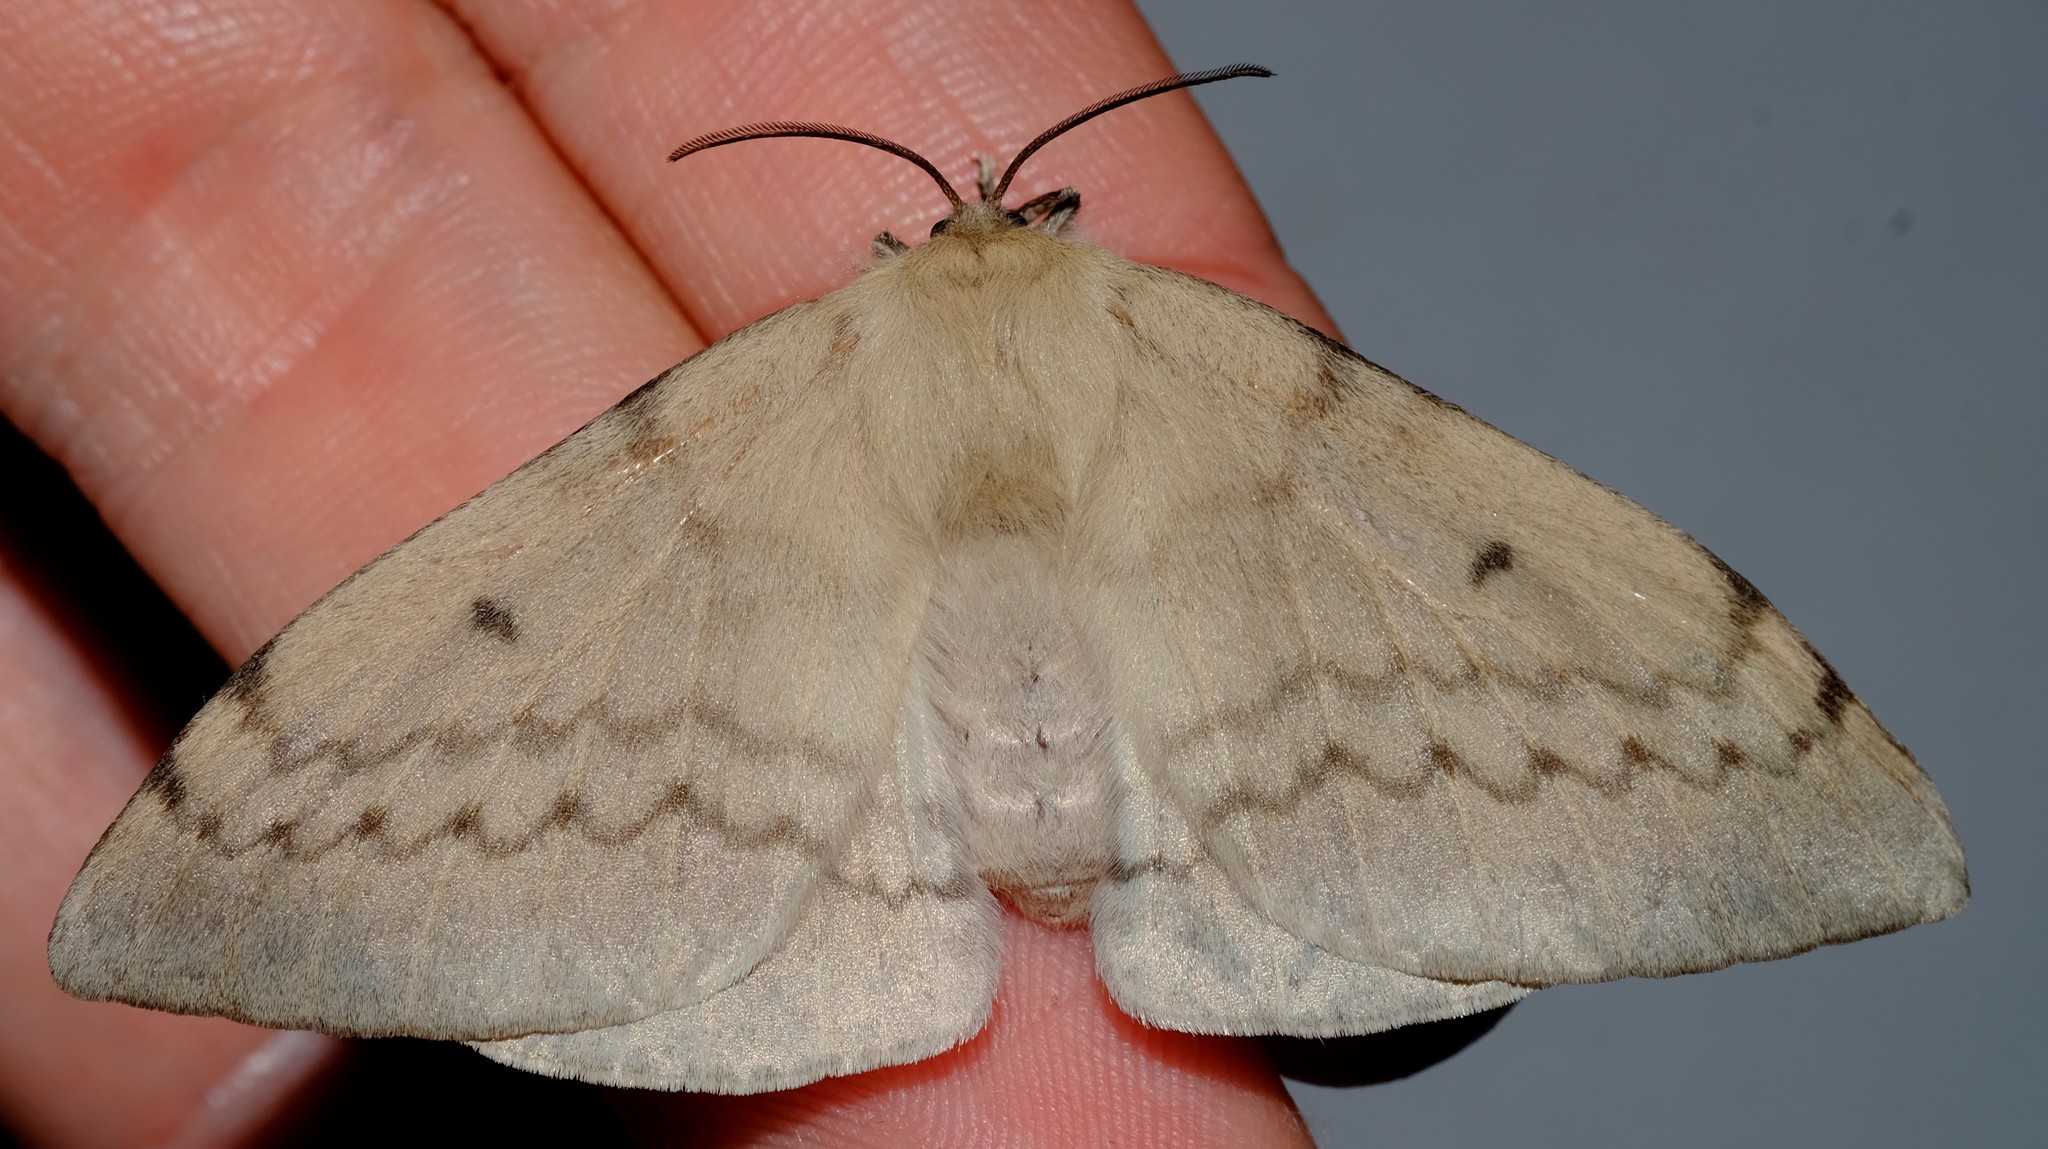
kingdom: Animalia
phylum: Arthropoda
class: Insecta
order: Lepidoptera
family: Anthelidae
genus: Chenuala
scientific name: Chenuala heliaspis
